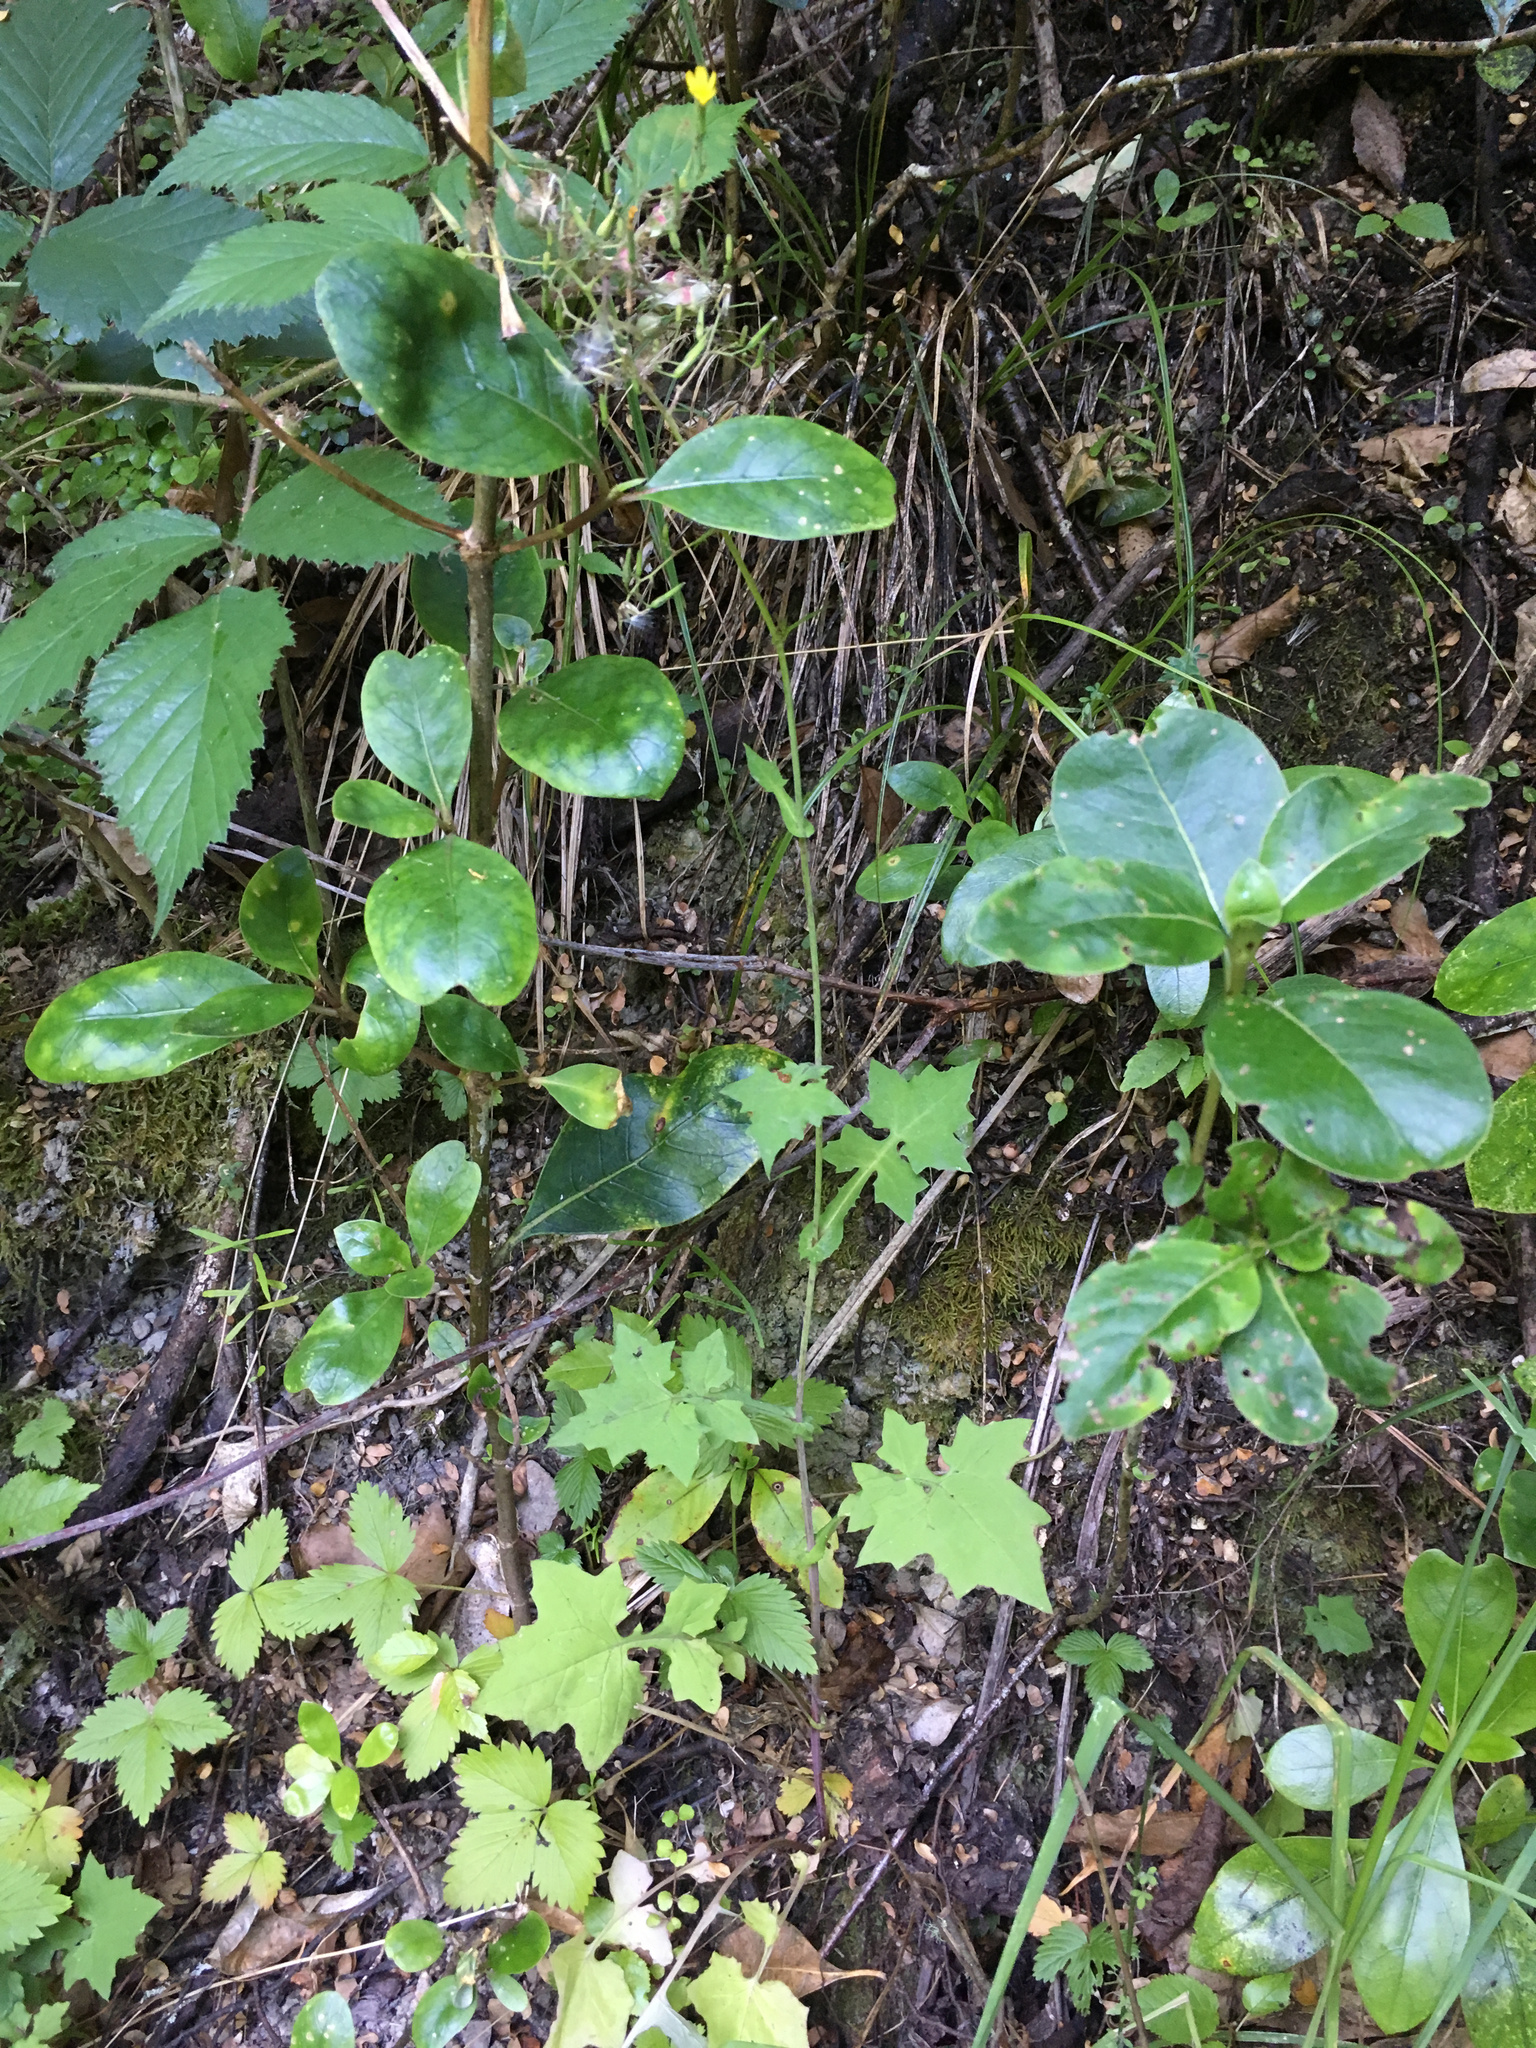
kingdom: Plantae
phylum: Tracheophyta
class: Magnoliopsida
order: Asterales
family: Asteraceae
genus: Mycelis
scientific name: Mycelis muralis
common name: Wall lettuce
